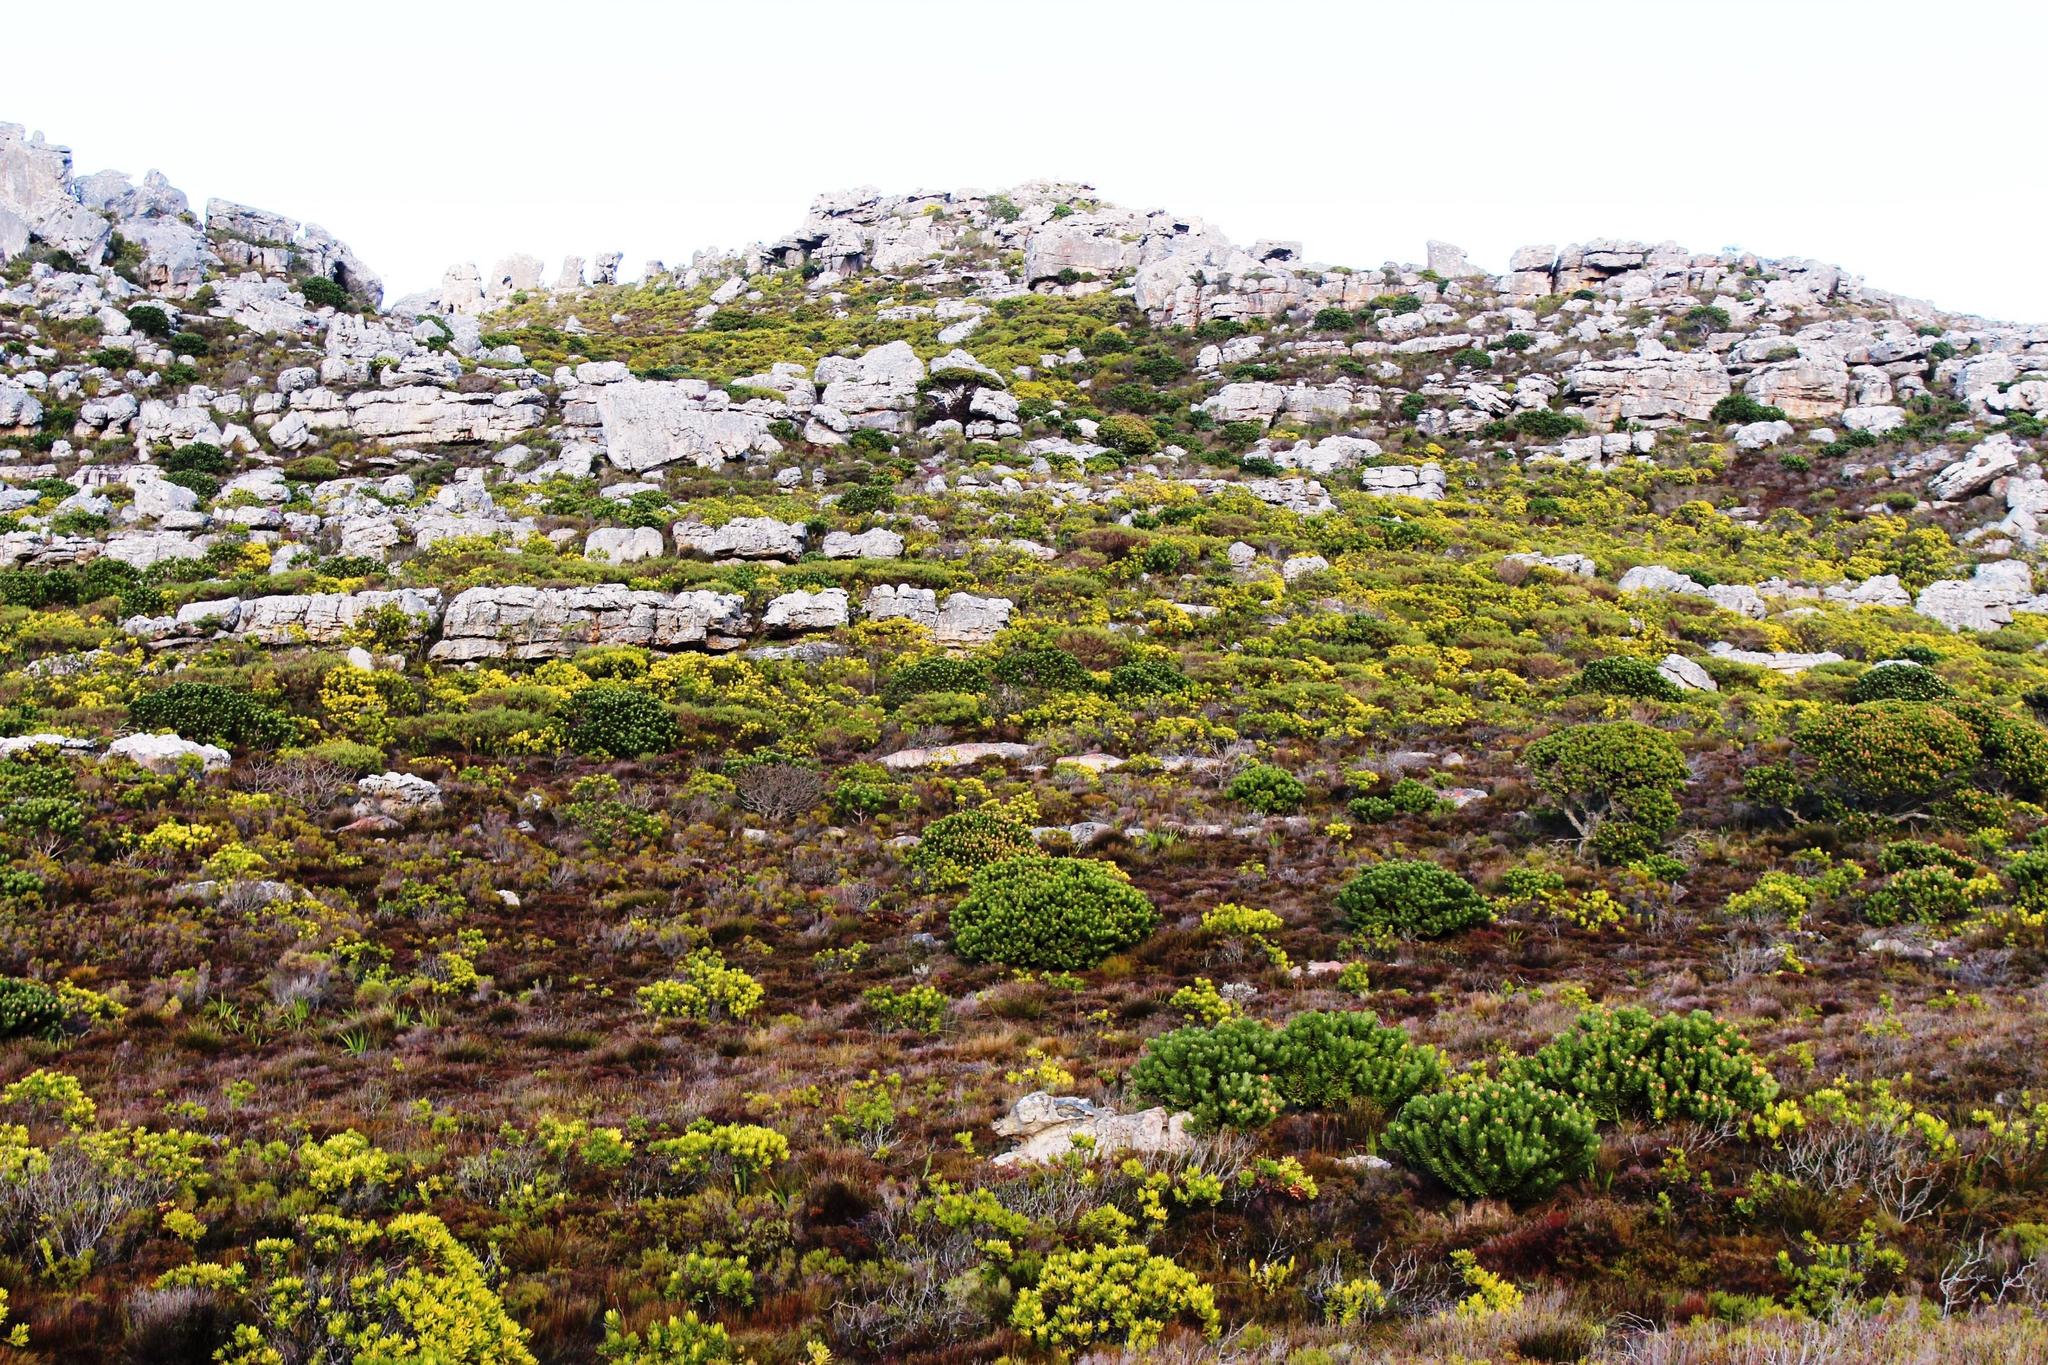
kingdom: Plantae
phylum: Tracheophyta
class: Magnoliopsida
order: Proteales
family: Proteaceae
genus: Mimetes
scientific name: Mimetes fimbriifolius
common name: Fringed bottlebrush
